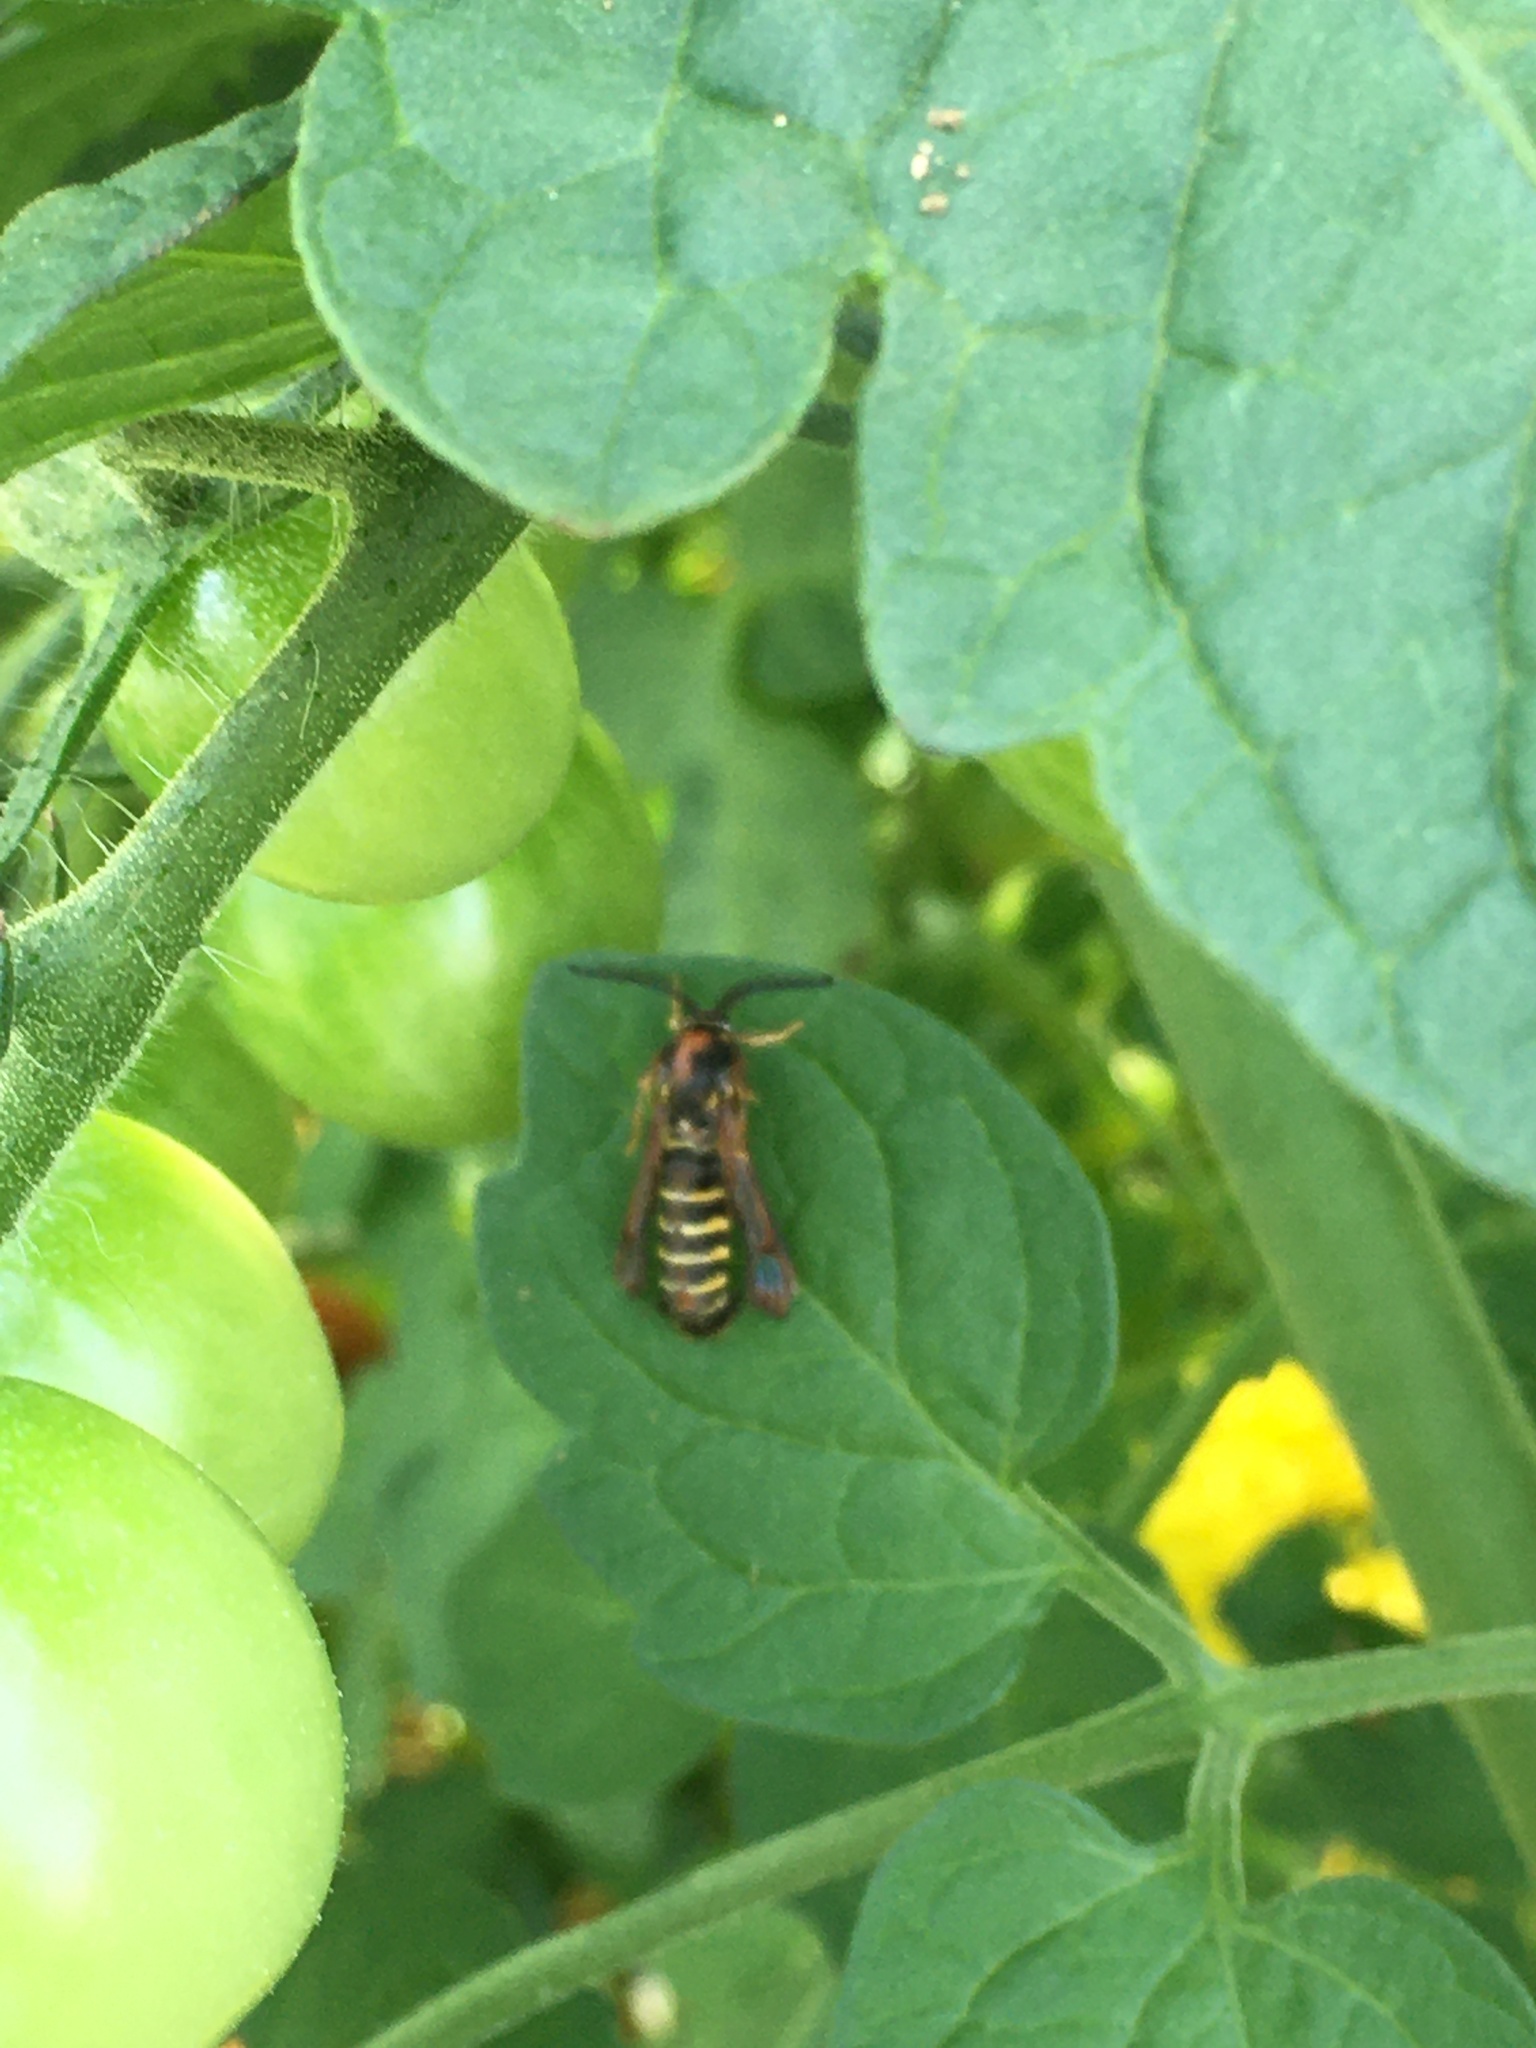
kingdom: Animalia
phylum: Arthropoda
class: Insecta
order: Lepidoptera
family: Sesiidae
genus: Pennisetia
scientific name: Pennisetia marginatum
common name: Raspberry crown borer
